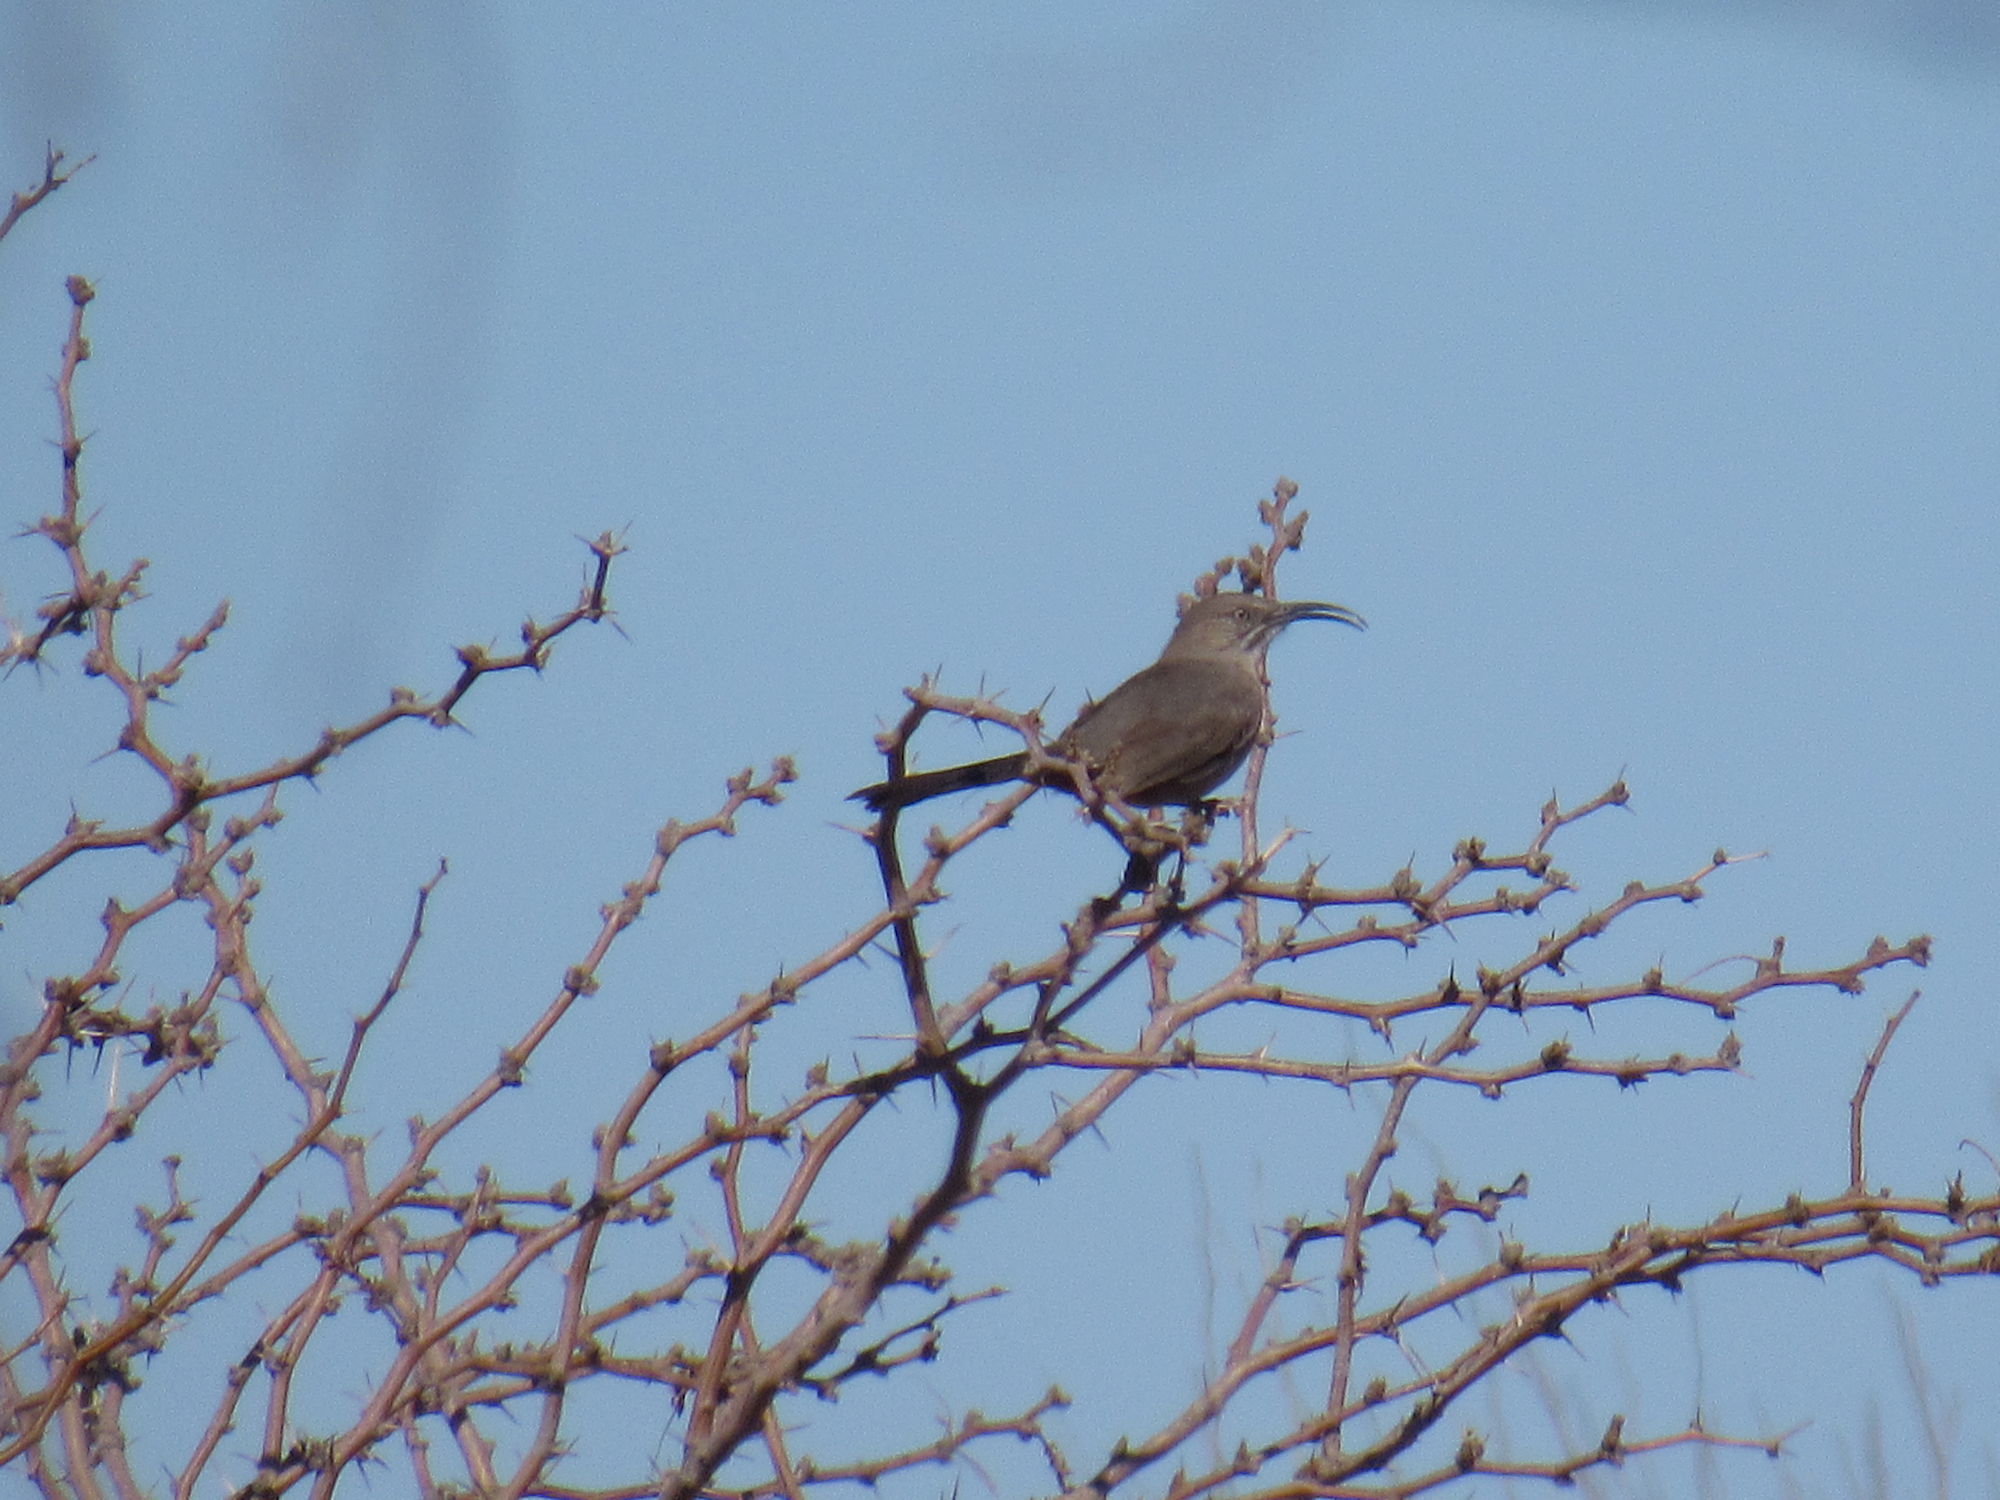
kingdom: Animalia
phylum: Chordata
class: Aves
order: Passeriformes
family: Mimidae
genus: Toxostoma
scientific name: Toxostoma crissale
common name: Crissal thrasher
